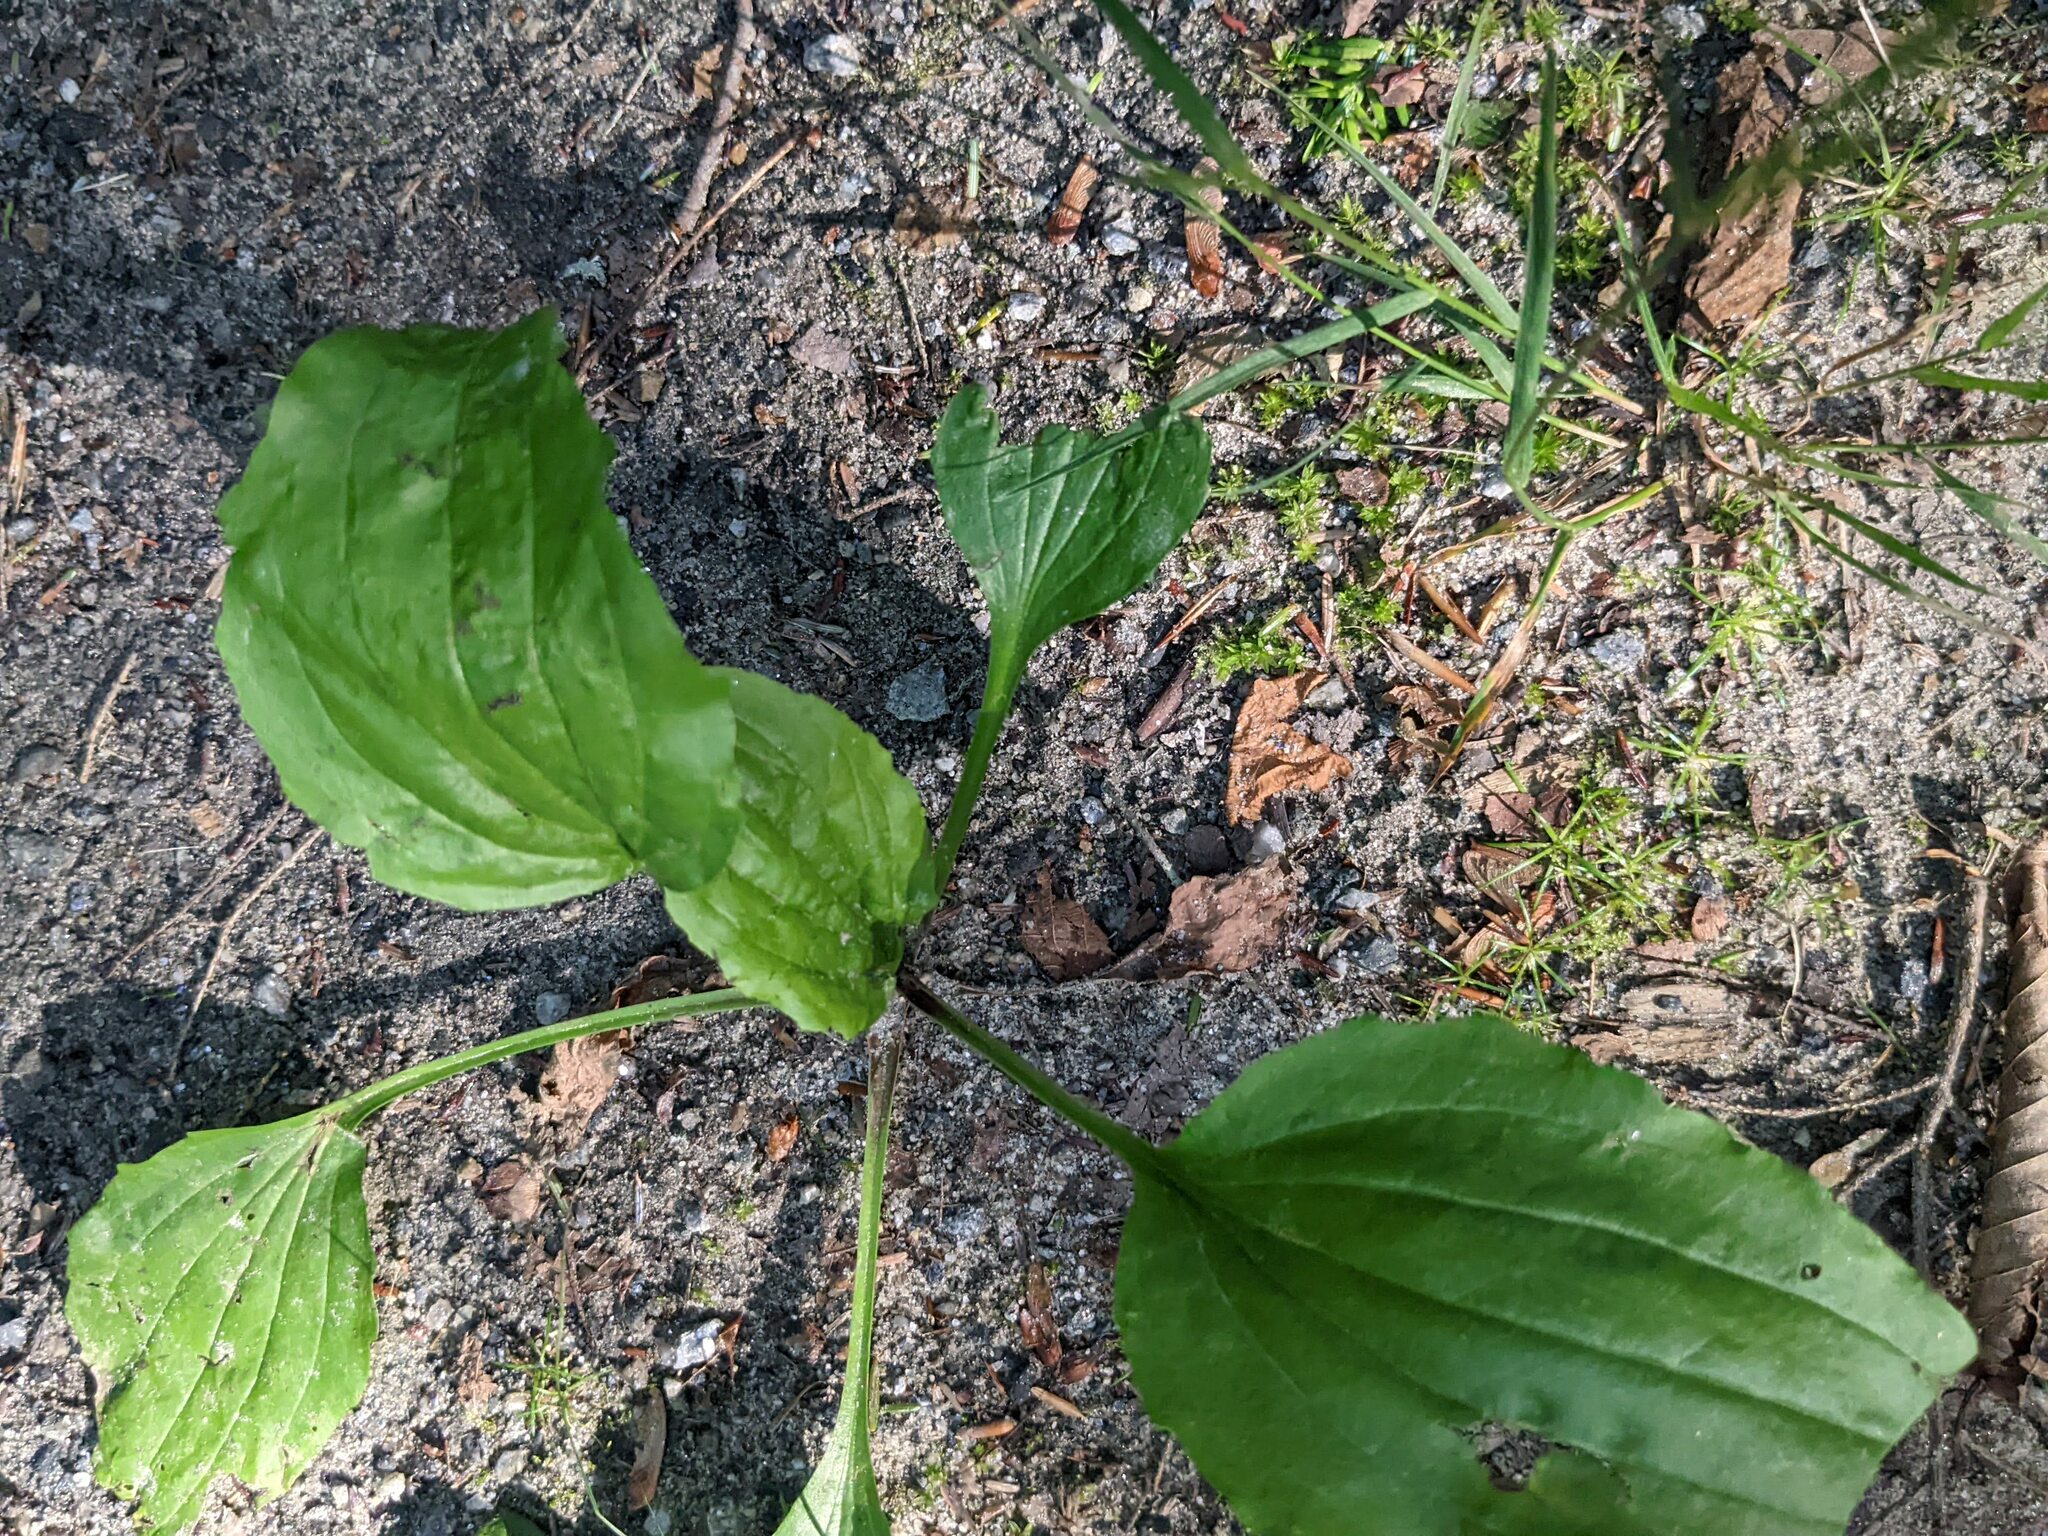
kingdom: Plantae
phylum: Tracheophyta
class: Magnoliopsida
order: Lamiales
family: Plantaginaceae
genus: Plantago
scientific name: Plantago rugelii
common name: American plantain
